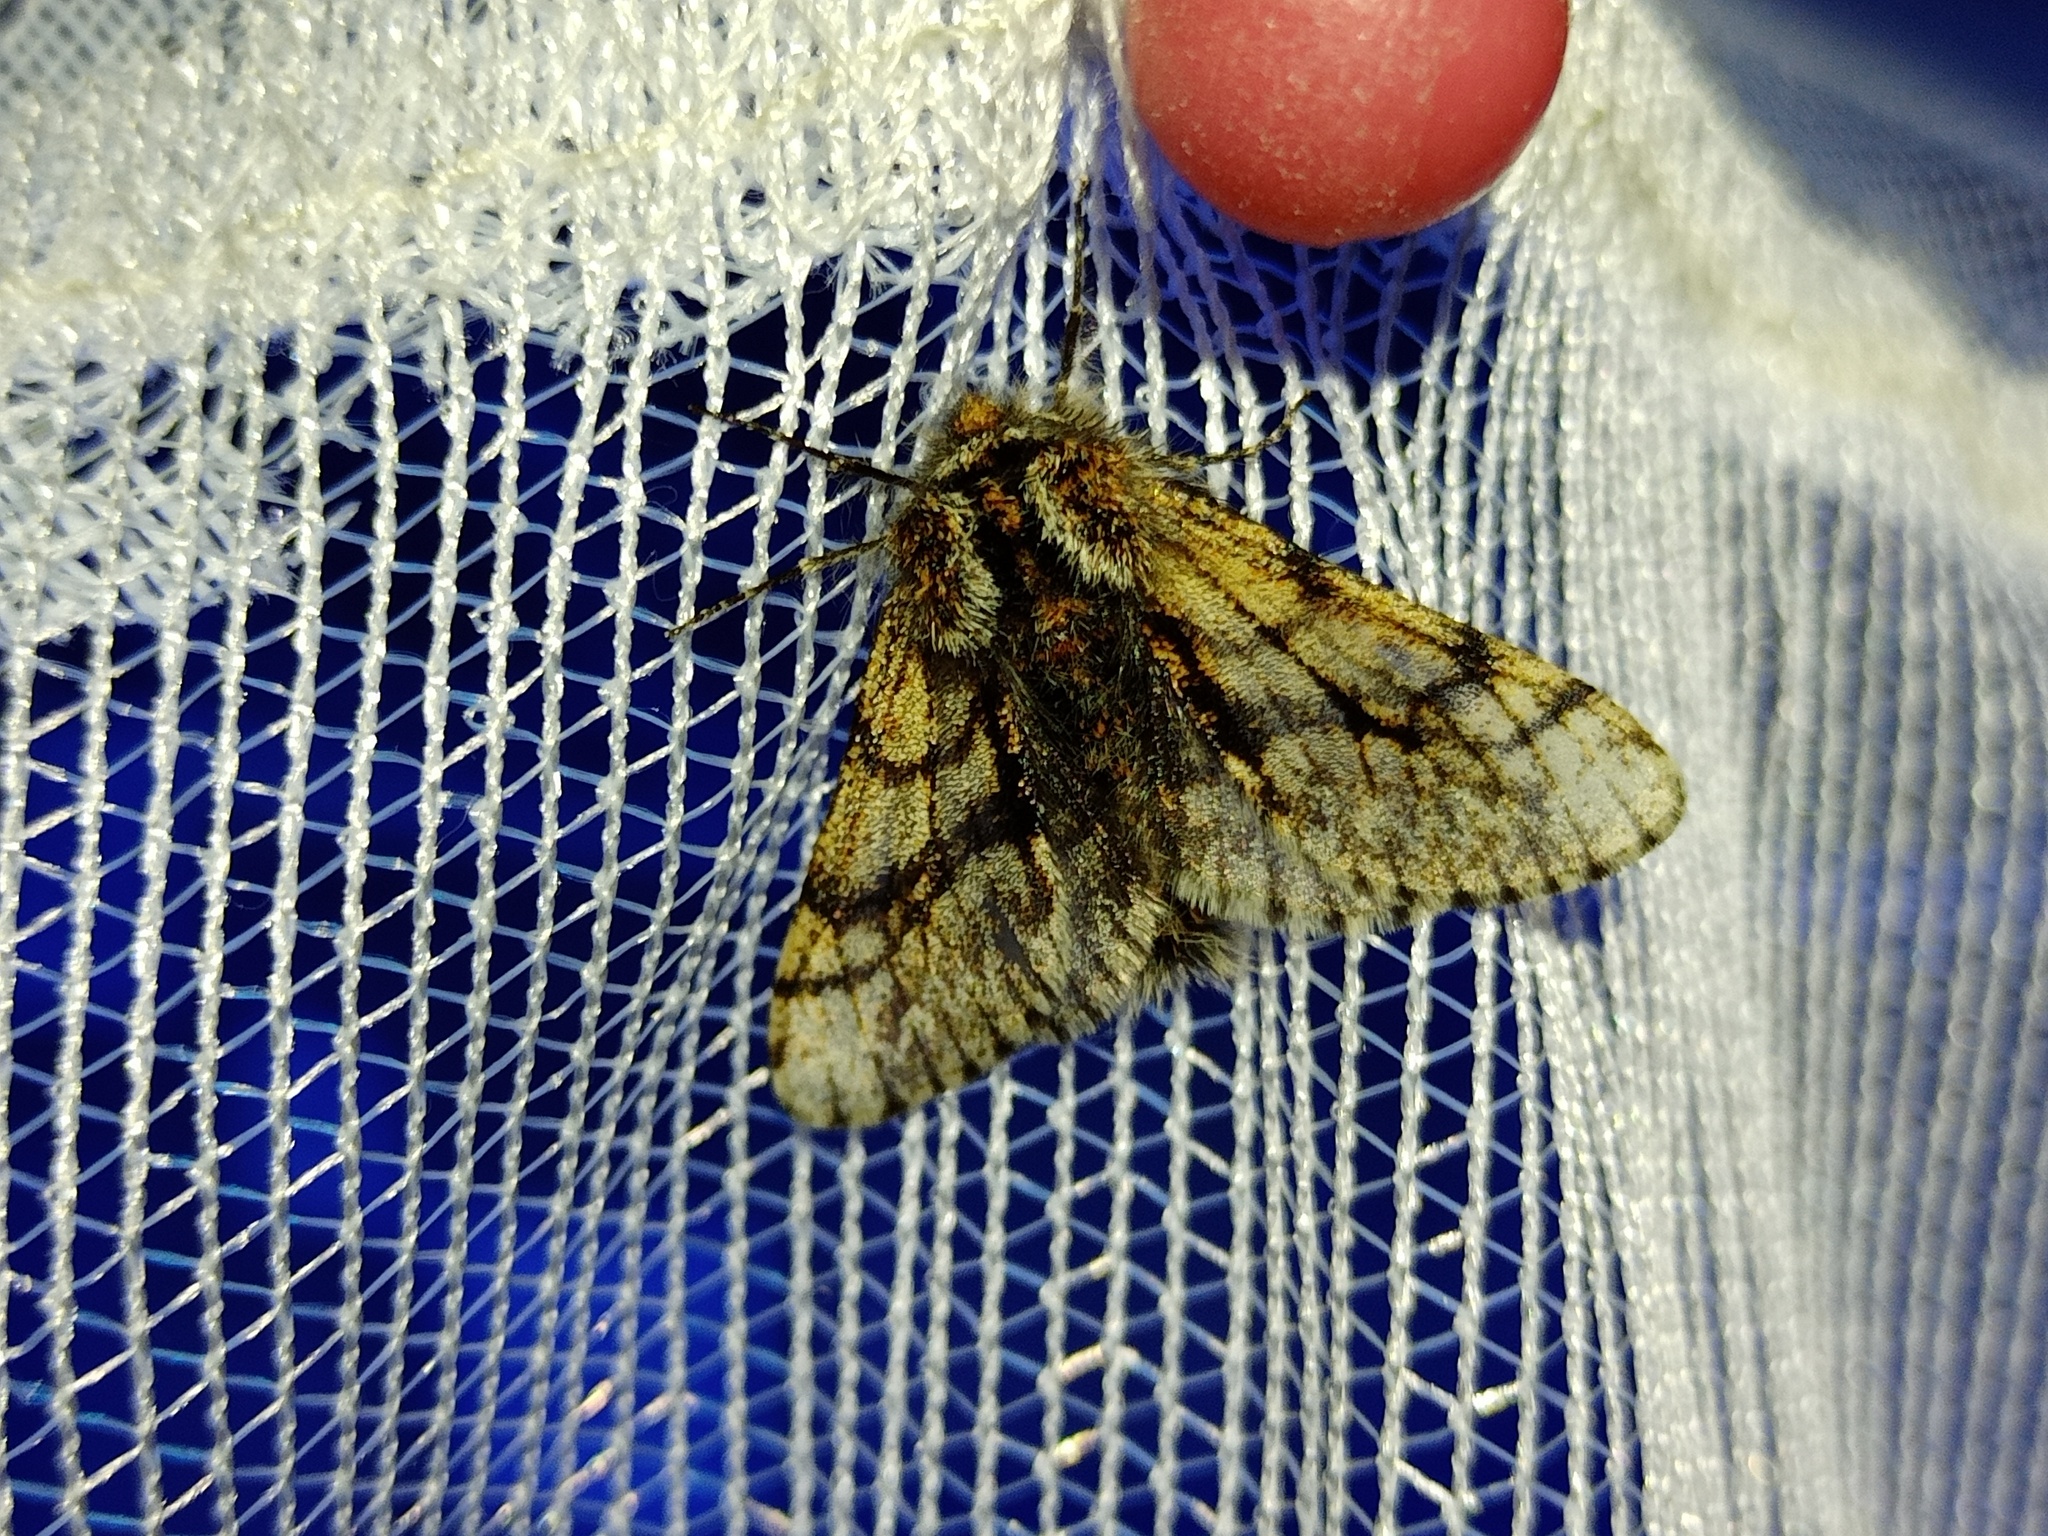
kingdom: Animalia
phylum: Arthropoda
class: Insecta
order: Lepidoptera
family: Geometridae
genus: Lycia
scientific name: Lycia pomonaria
